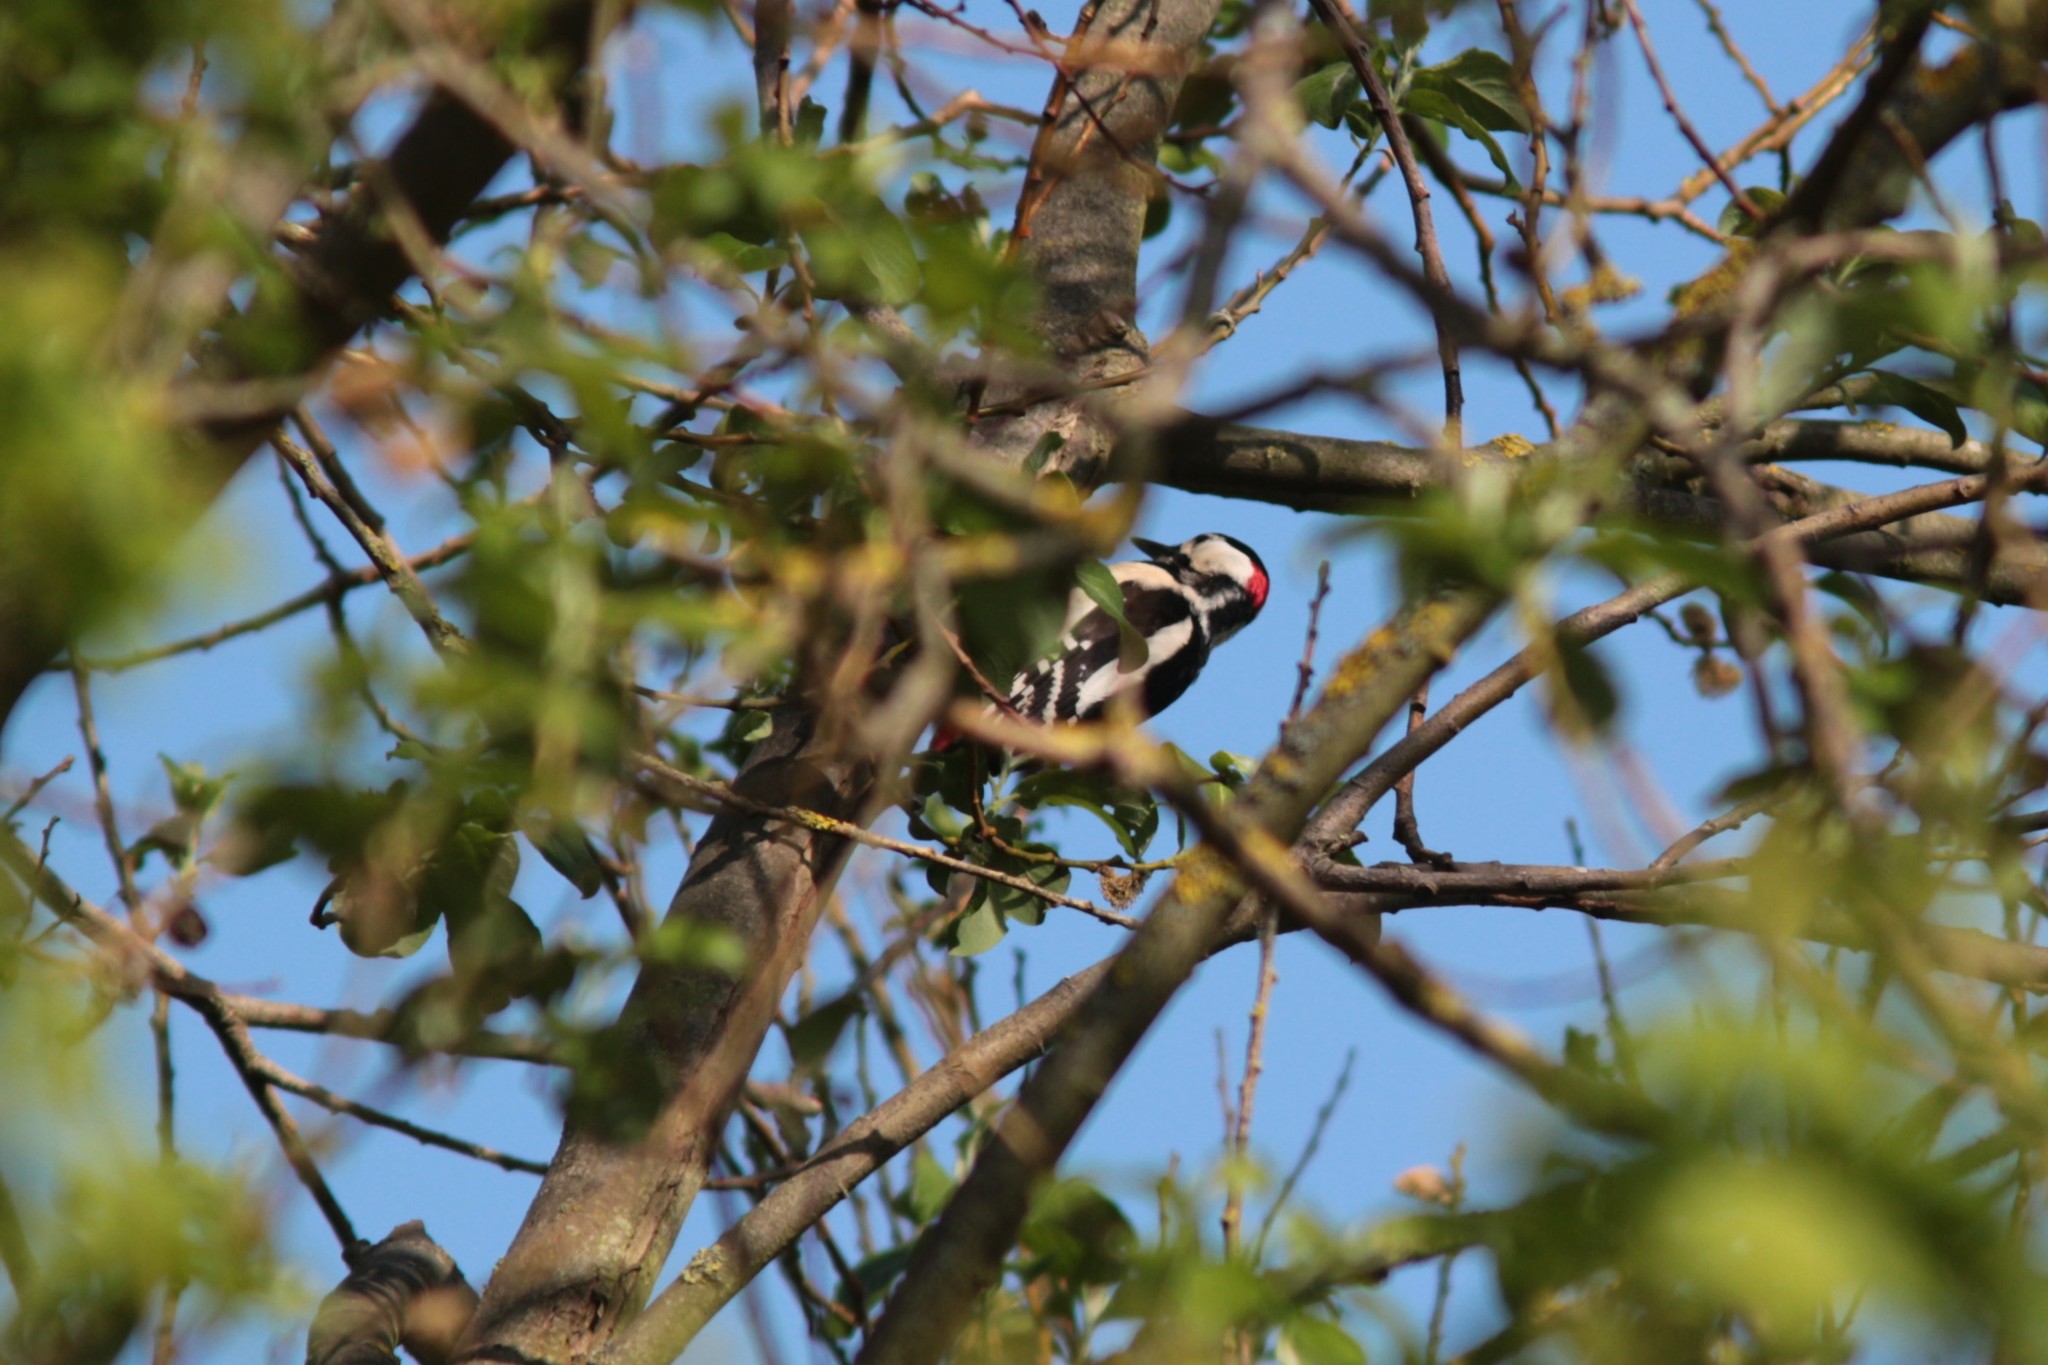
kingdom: Animalia
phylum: Chordata
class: Aves
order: Piciformes
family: Picidae
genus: Dendrocopos
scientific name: Dendrocopos major
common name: Great spotted woodpecker
